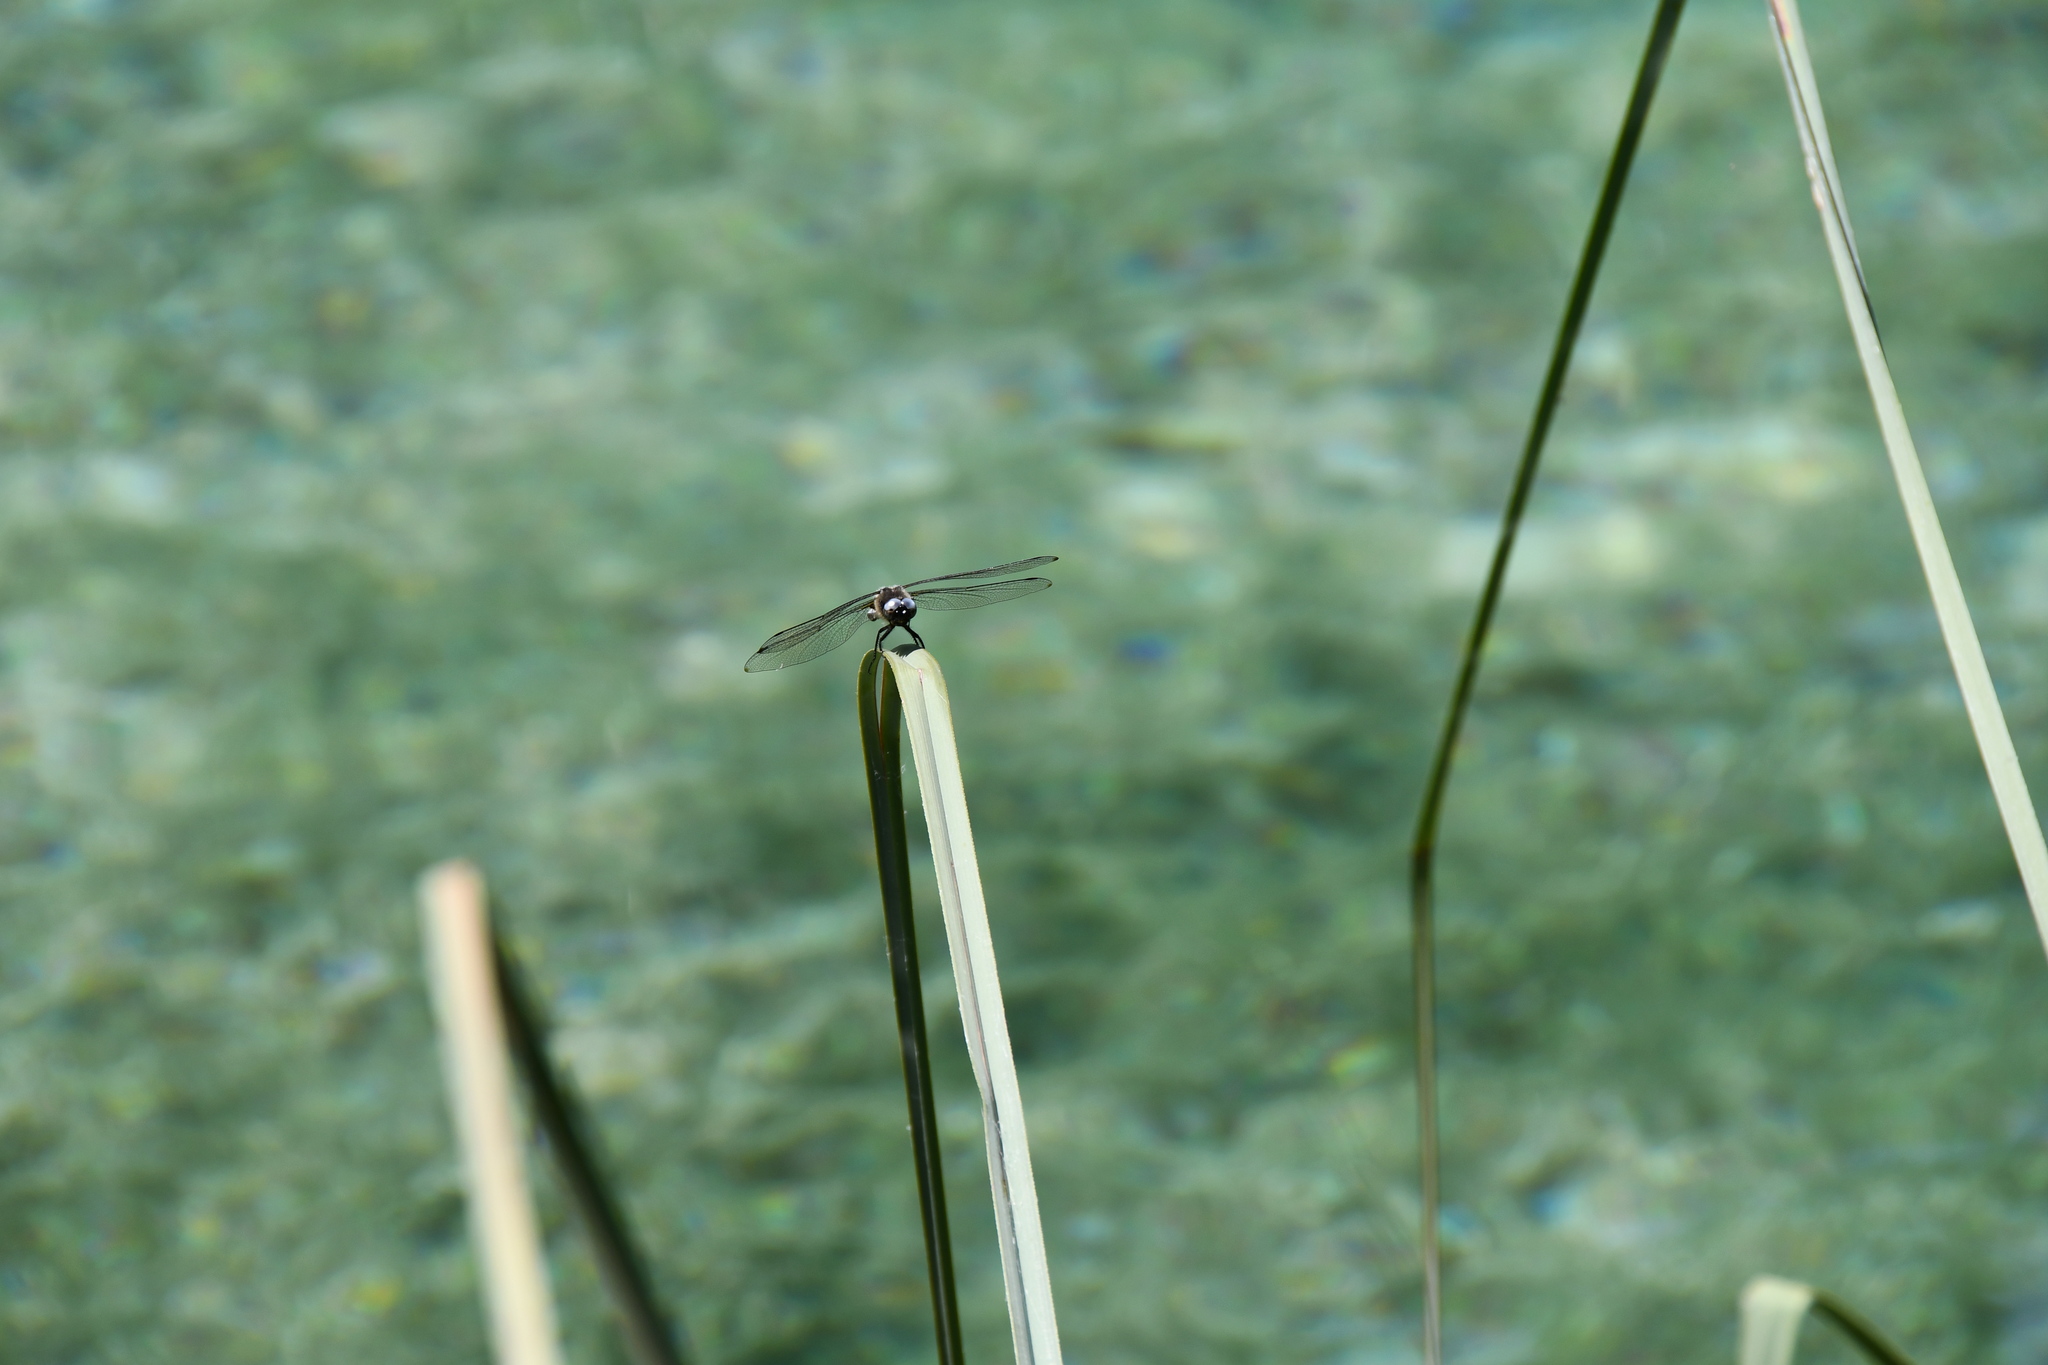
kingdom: Animalia
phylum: Arthropoda
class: Insecta
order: Odonata
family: Libellulidae
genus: Libellula
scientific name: Libellula fulva
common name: Blue chaser
